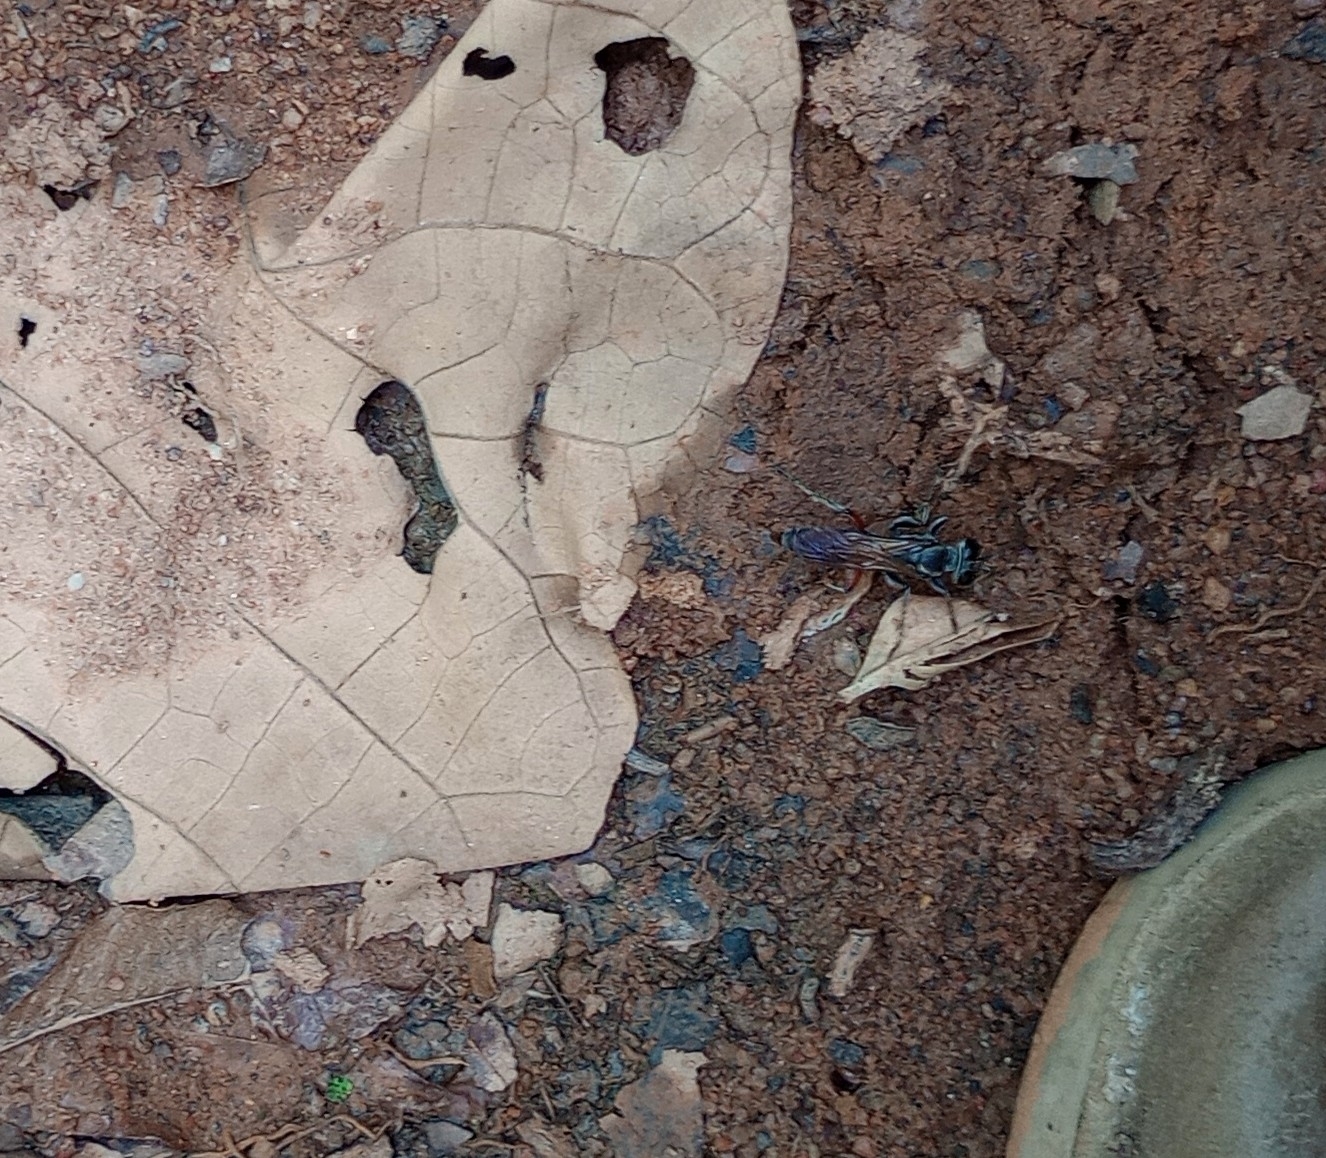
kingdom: Animalia
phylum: Arthropoda
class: Insecta
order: Hymenoptera
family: Crabronidae
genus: Liris
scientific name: Liris subtessellatus
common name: Crabronid wasp
